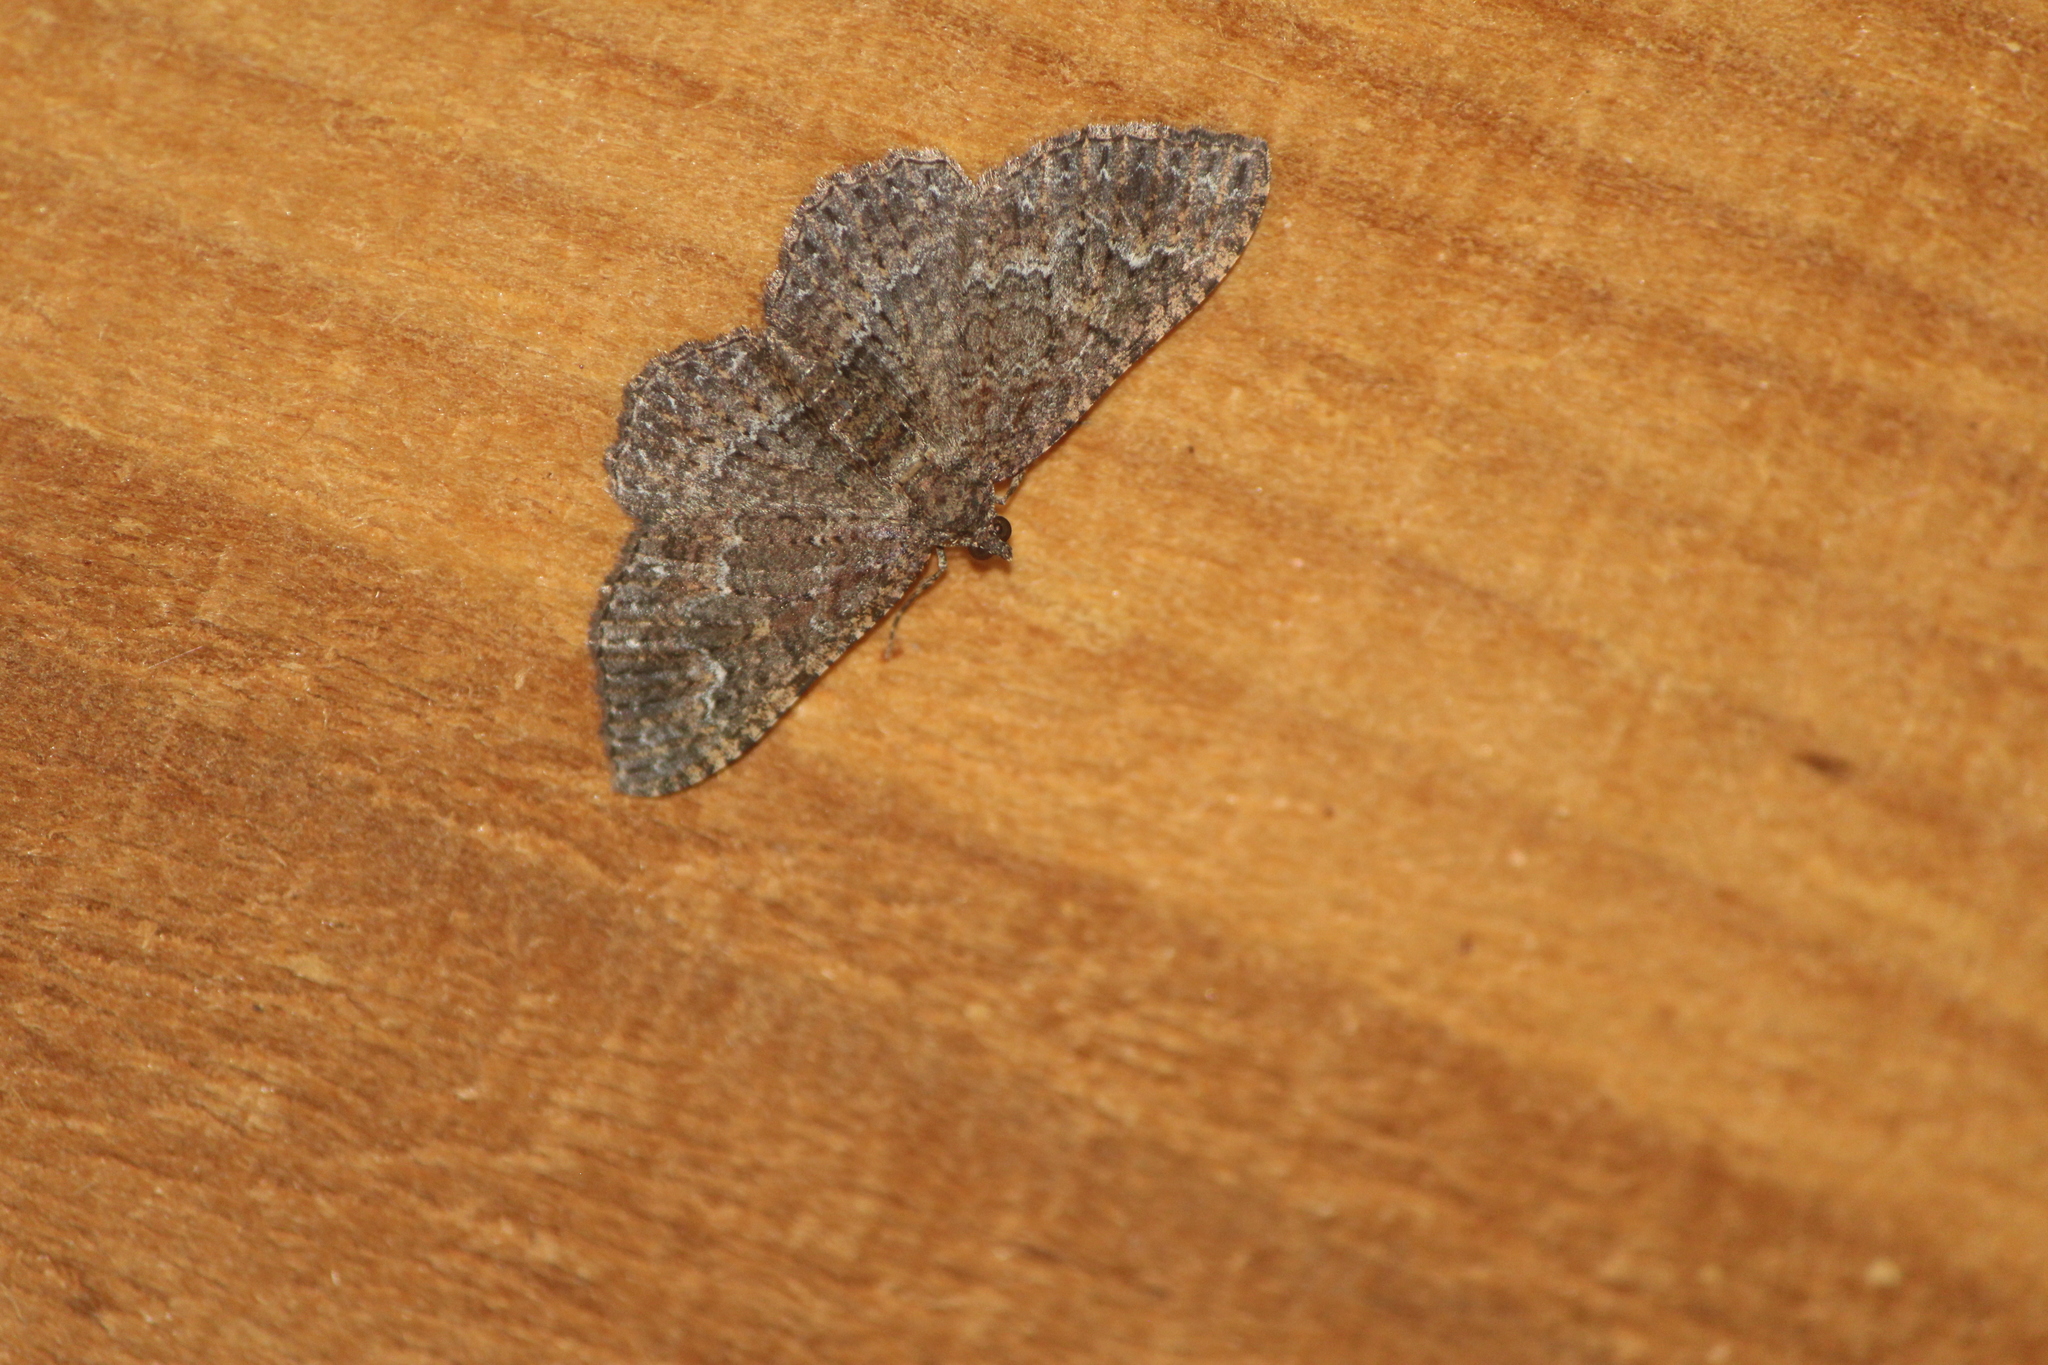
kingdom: Animalia
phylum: Arthropoda
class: Insecta
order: Lepidoptera
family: Geometridae
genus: Disclisioprocta
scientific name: Disclisioprocta stellata
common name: Somber carpet
